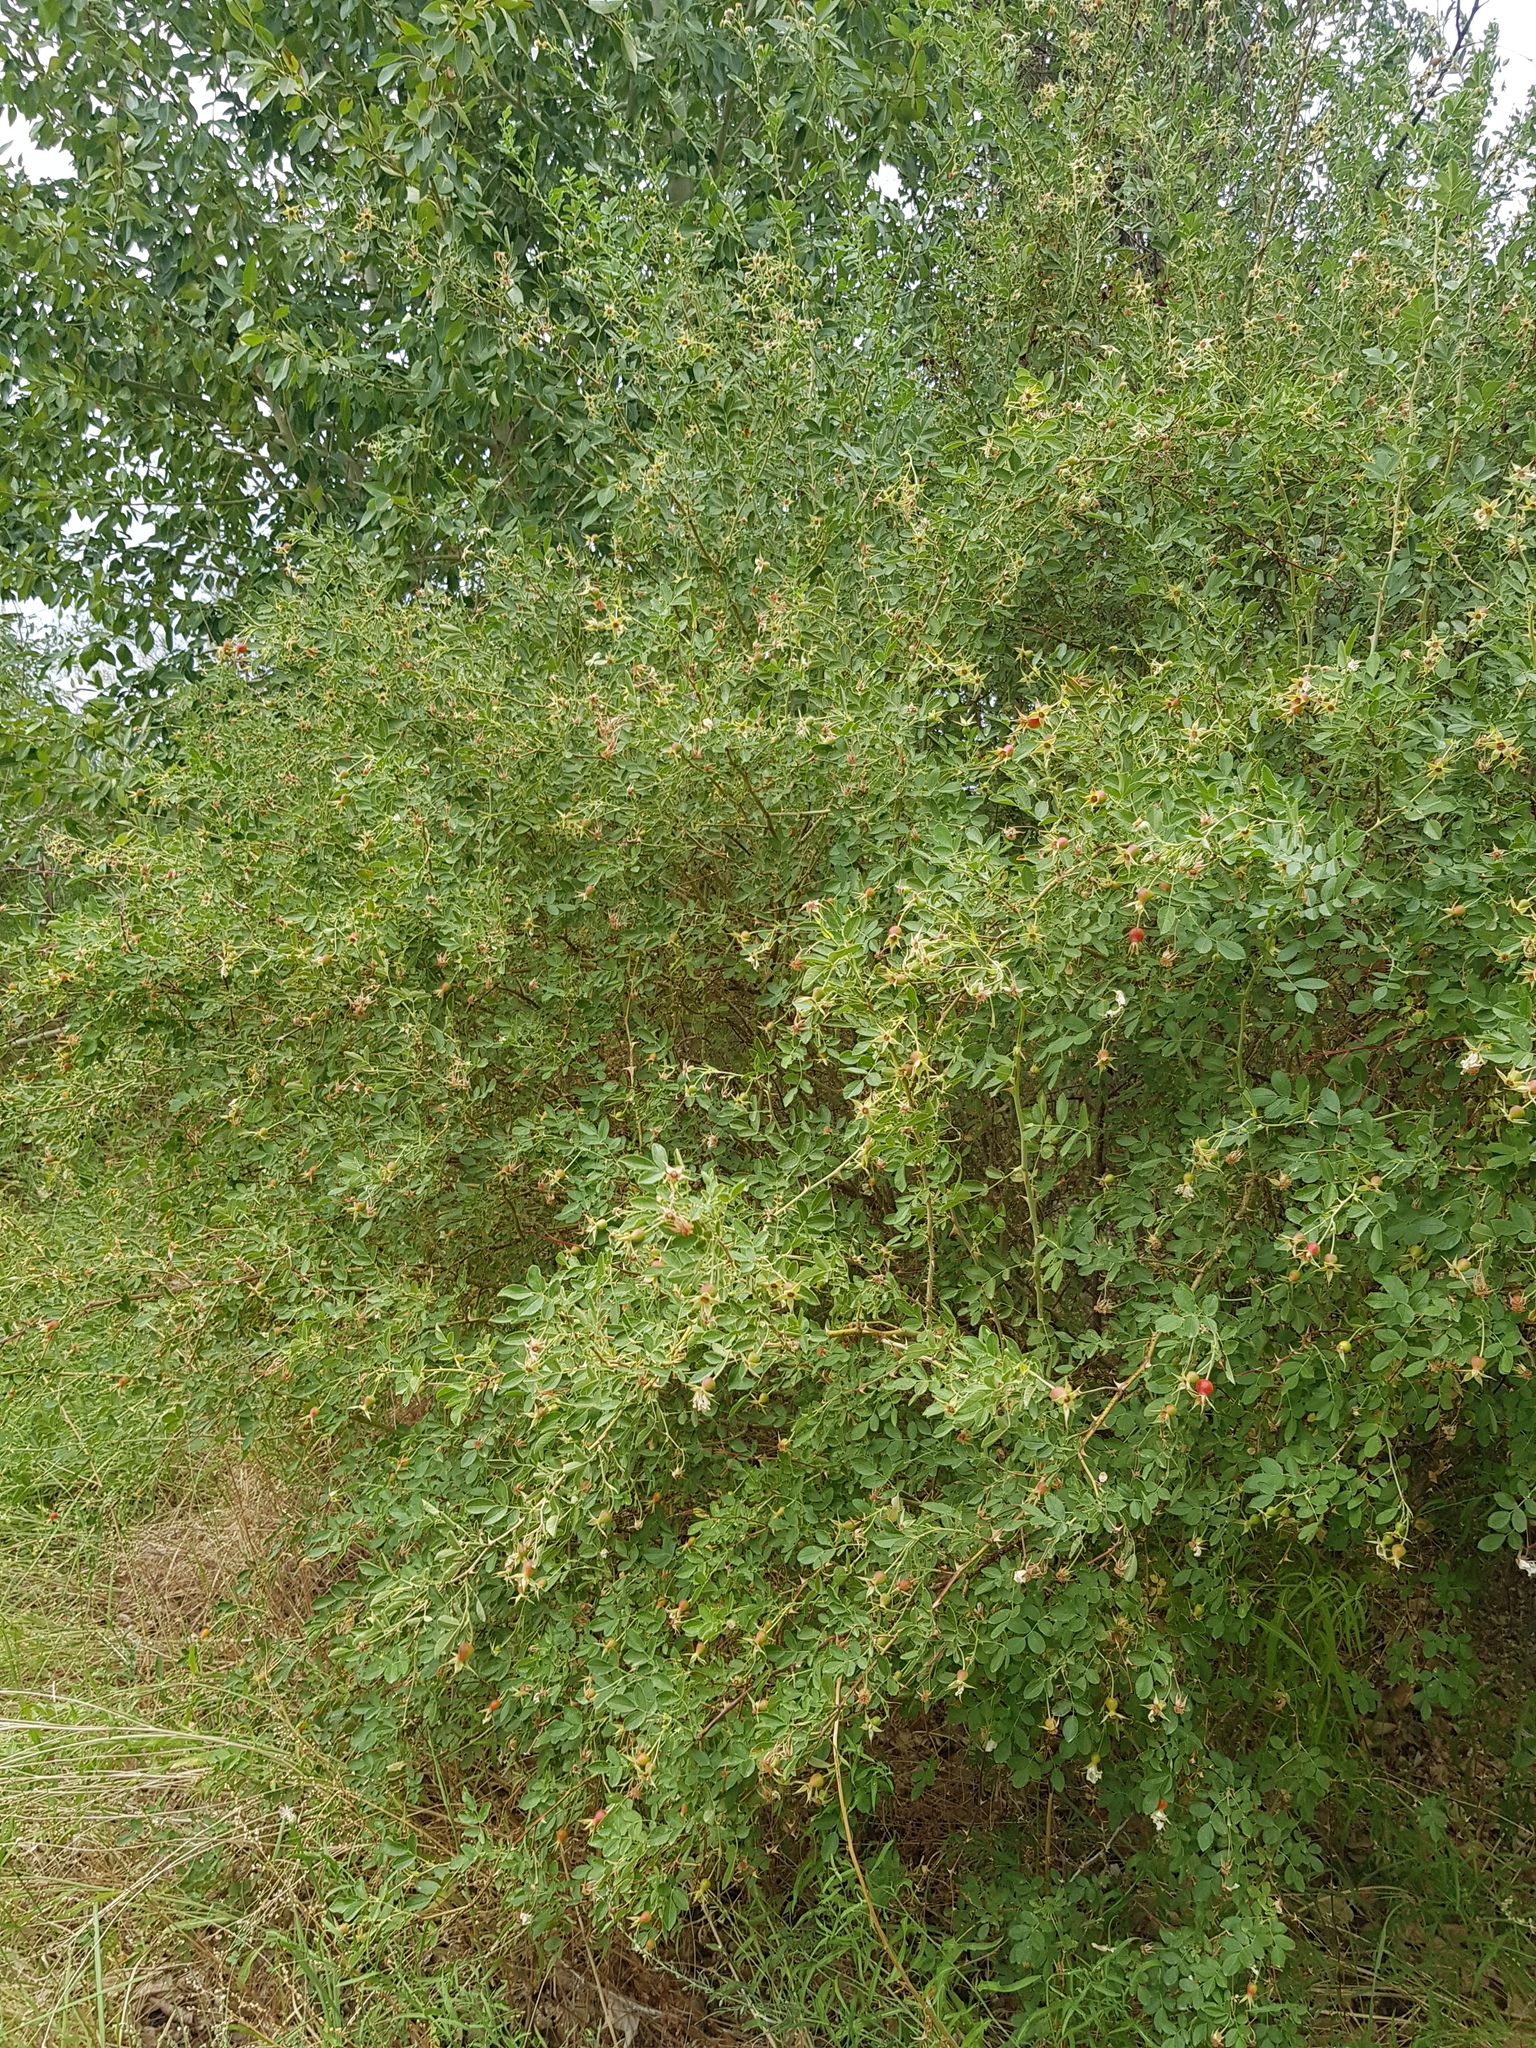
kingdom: Plantae
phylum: Tracheophyta
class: Magnoliopsida
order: Rosales
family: Rosaceae
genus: Rosa
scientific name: Rosa laxa
